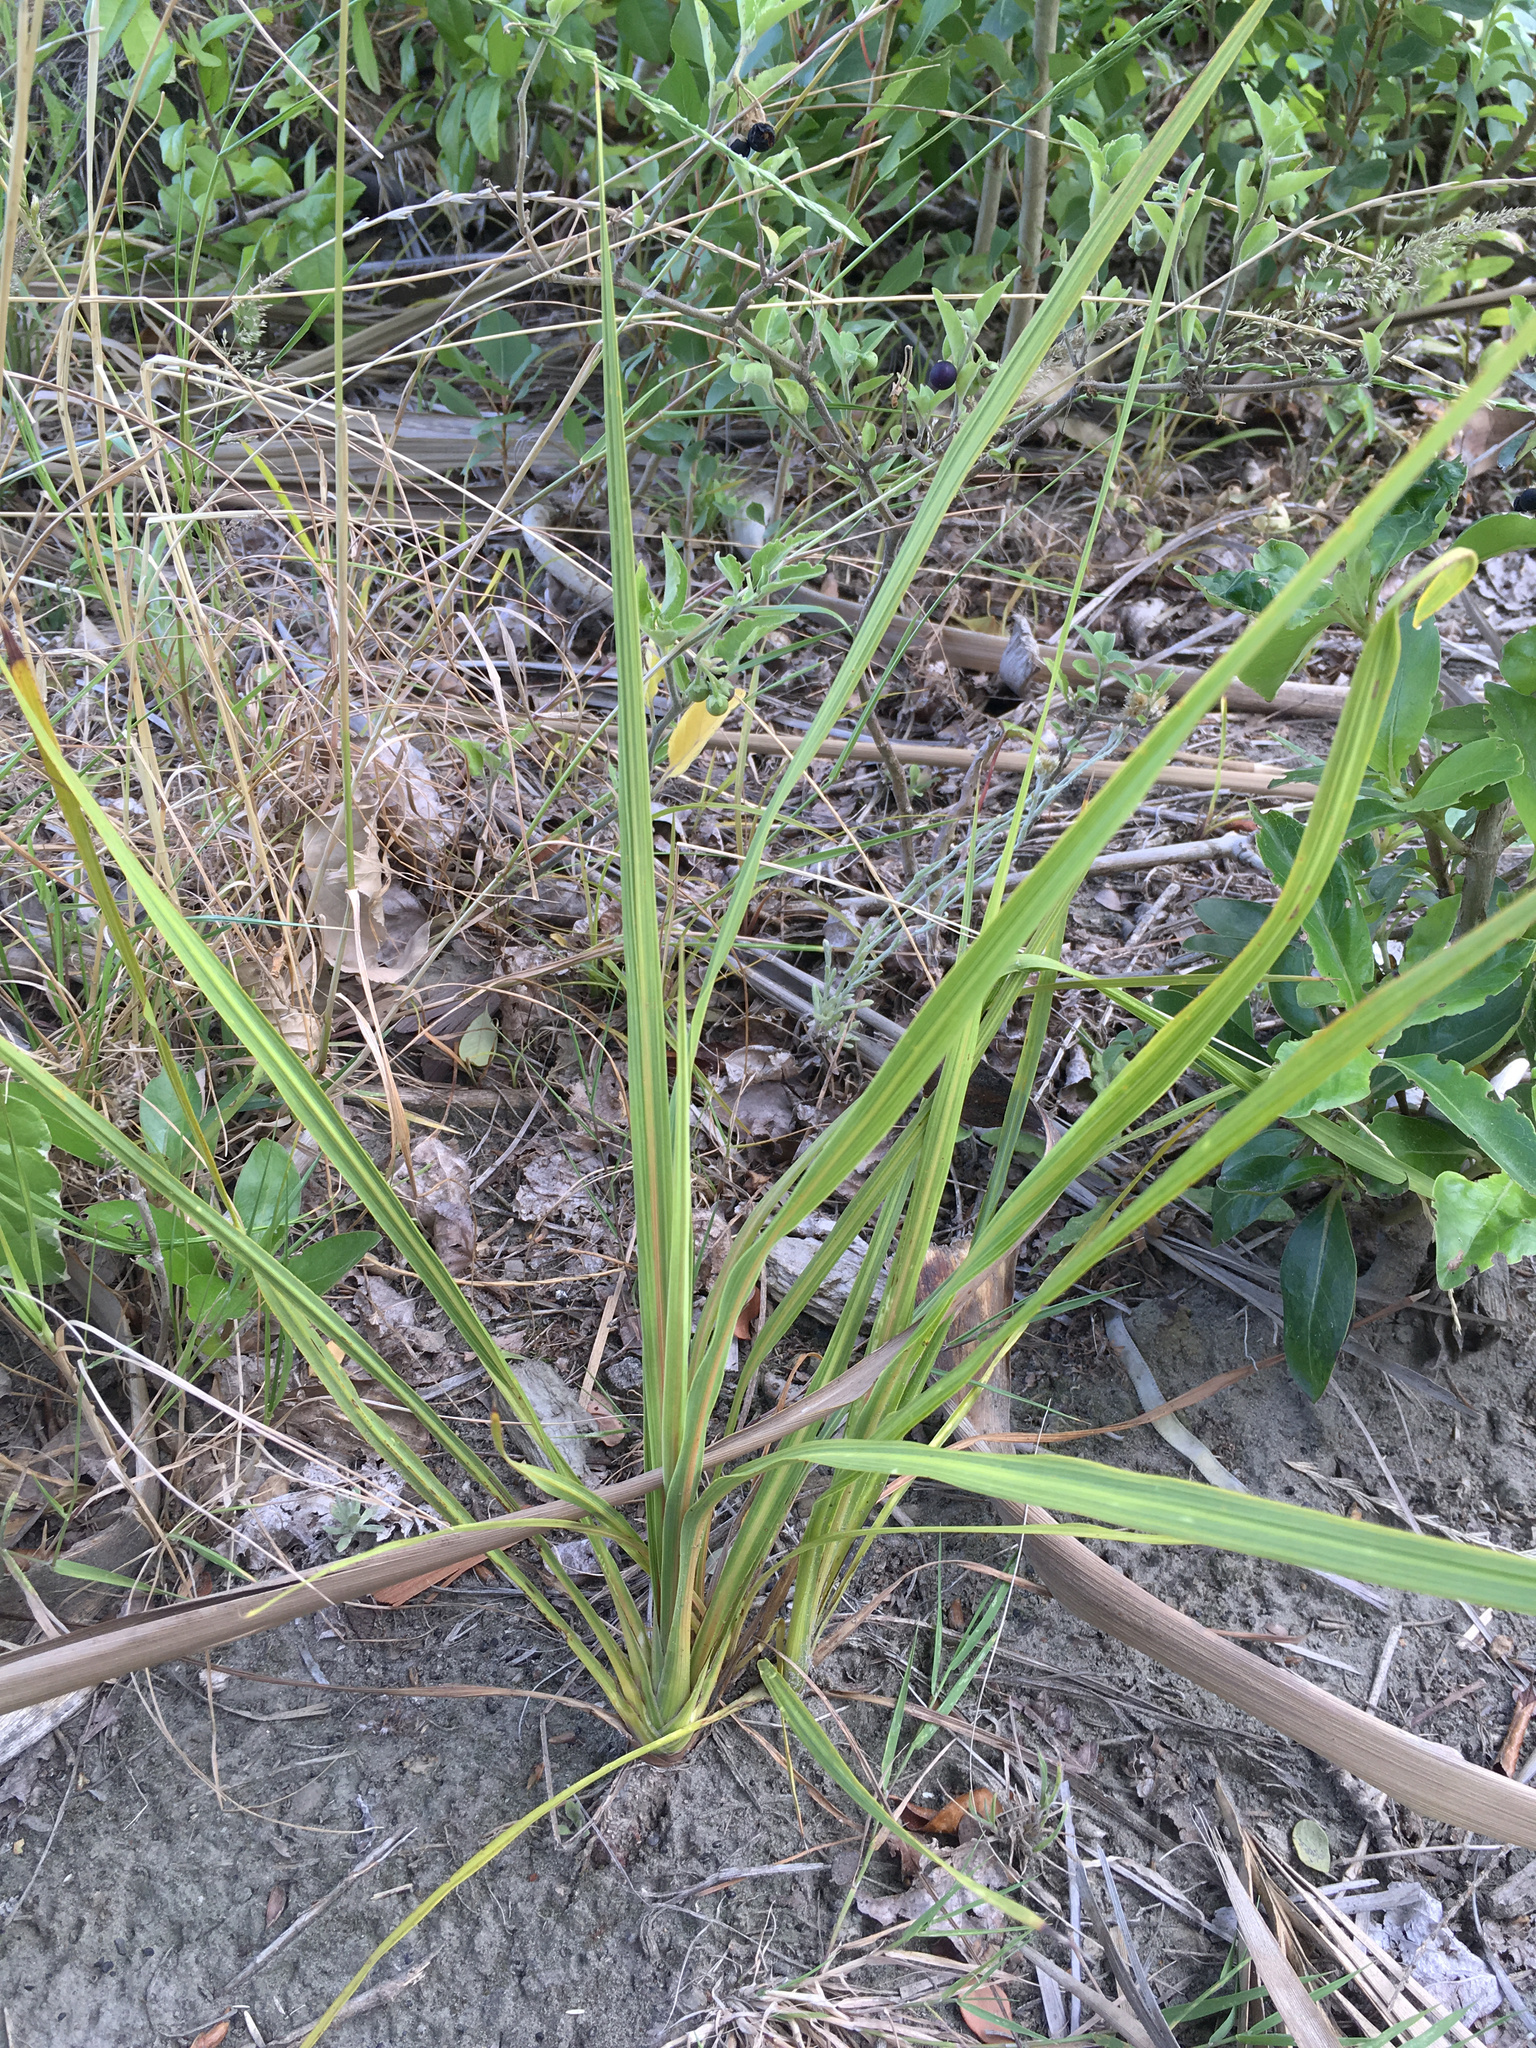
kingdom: Plantae
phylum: Tracheophyta
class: Liliopsida
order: Asparagales
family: Asparagaceae
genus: Cordyline
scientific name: Cordyline australis
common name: Cabbage-palm
